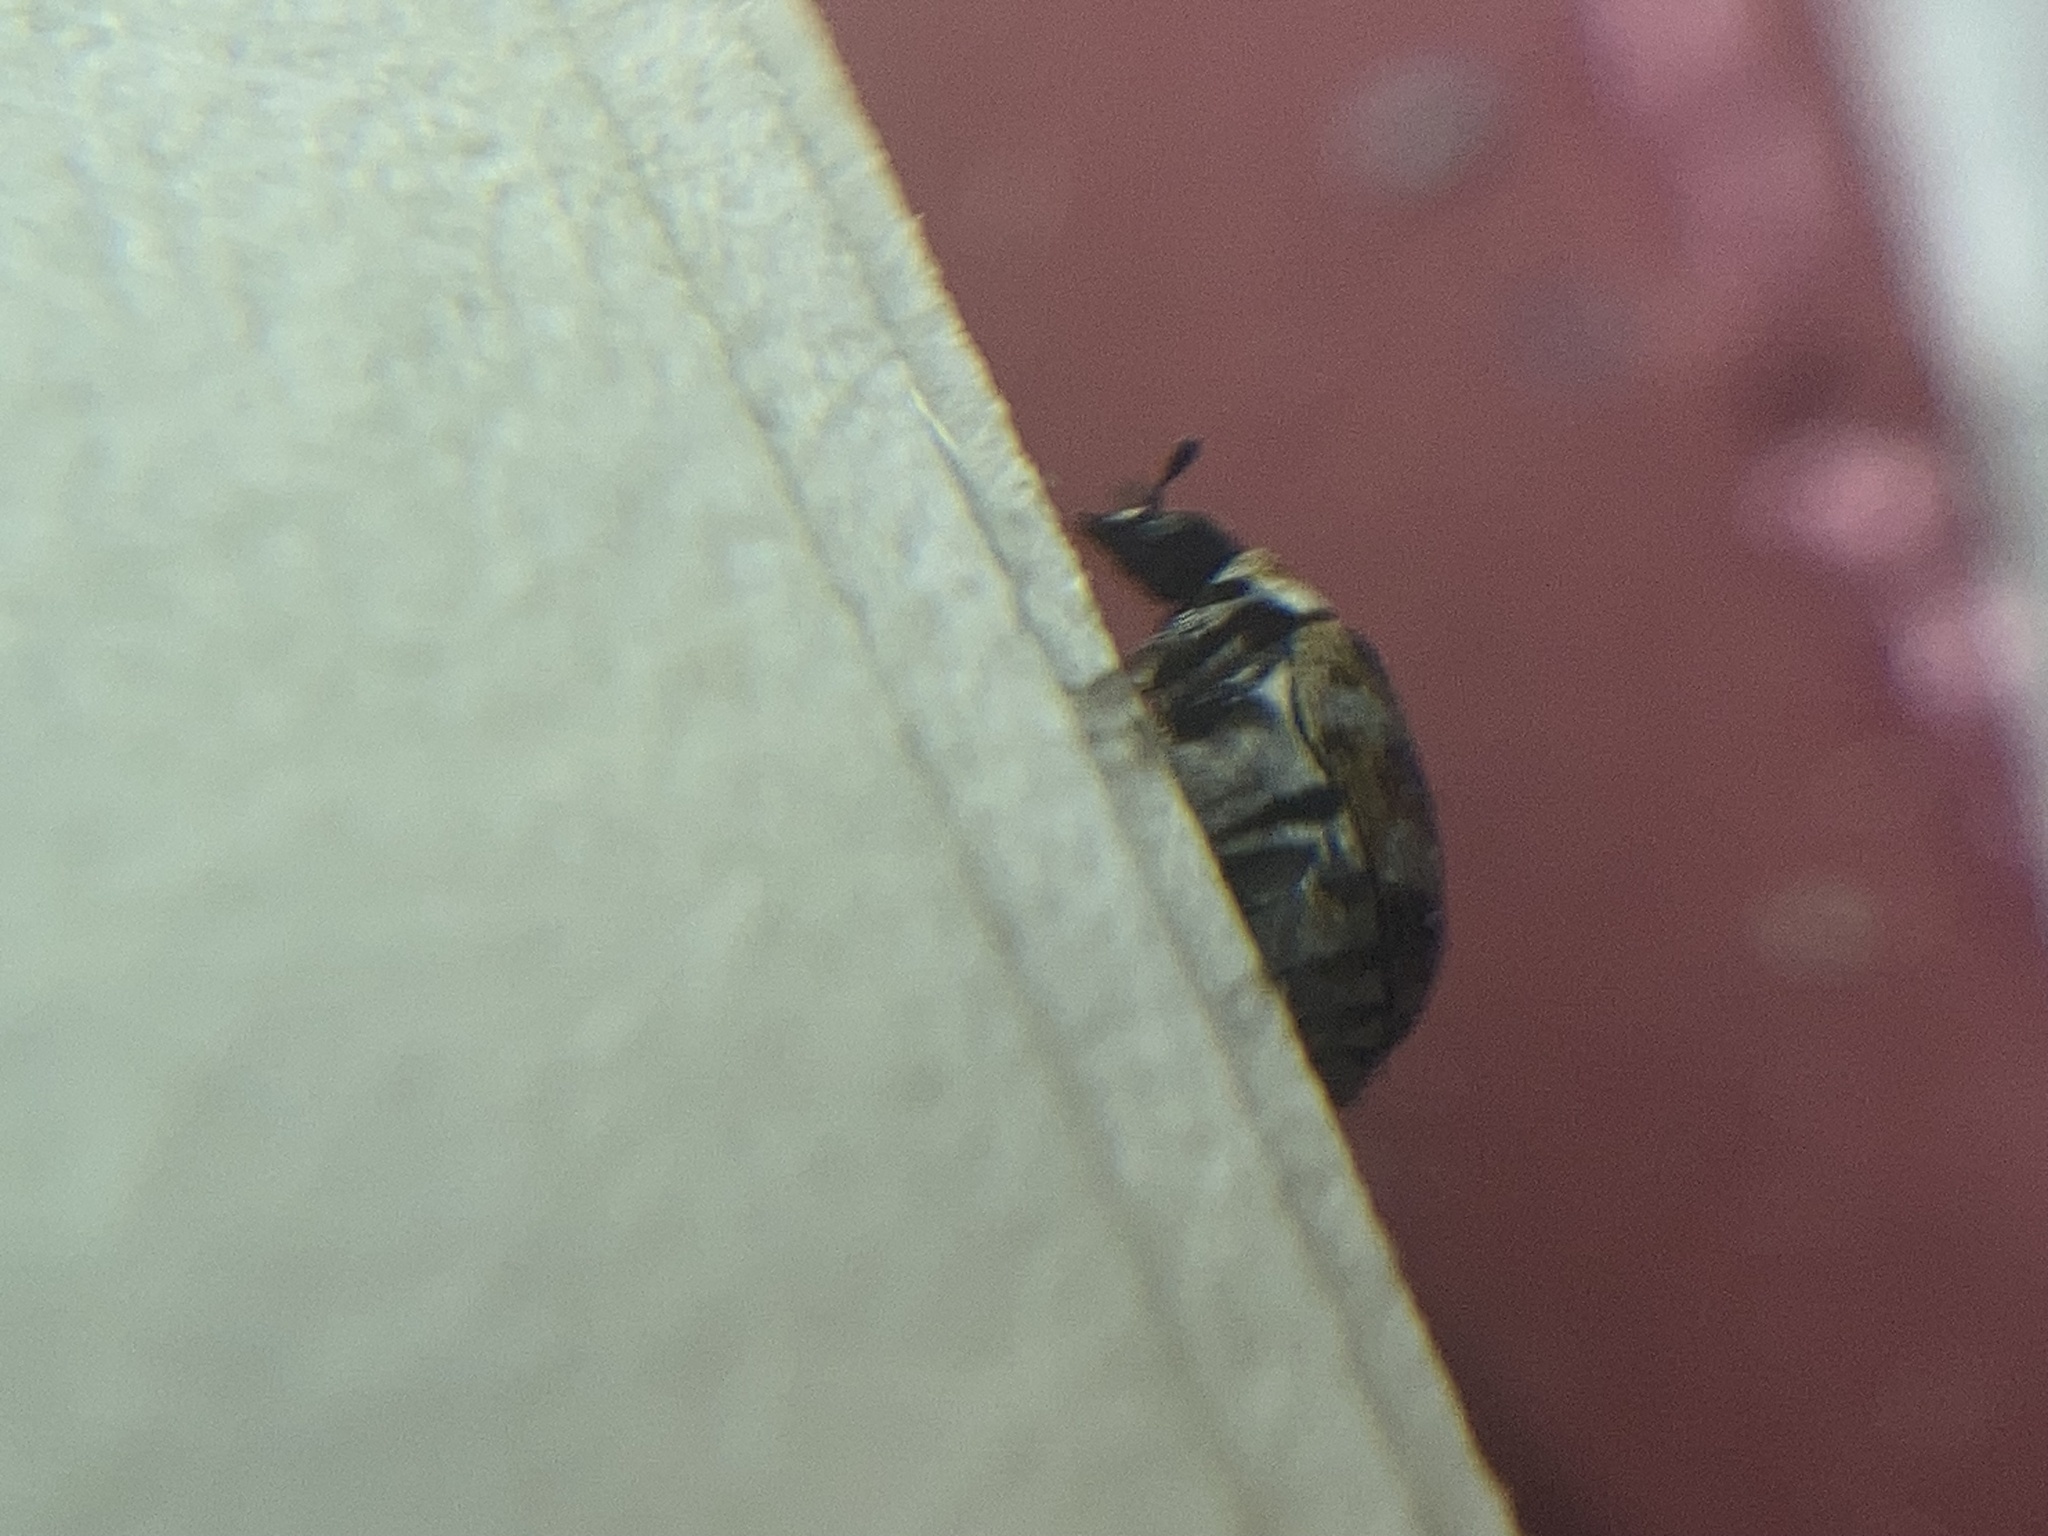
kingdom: Animalia
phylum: Arthropoda
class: Insecta
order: Coleoptera
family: Dermestidae
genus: Anthrenus
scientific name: Anthrenus verbasci
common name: Varied carpet beetle
